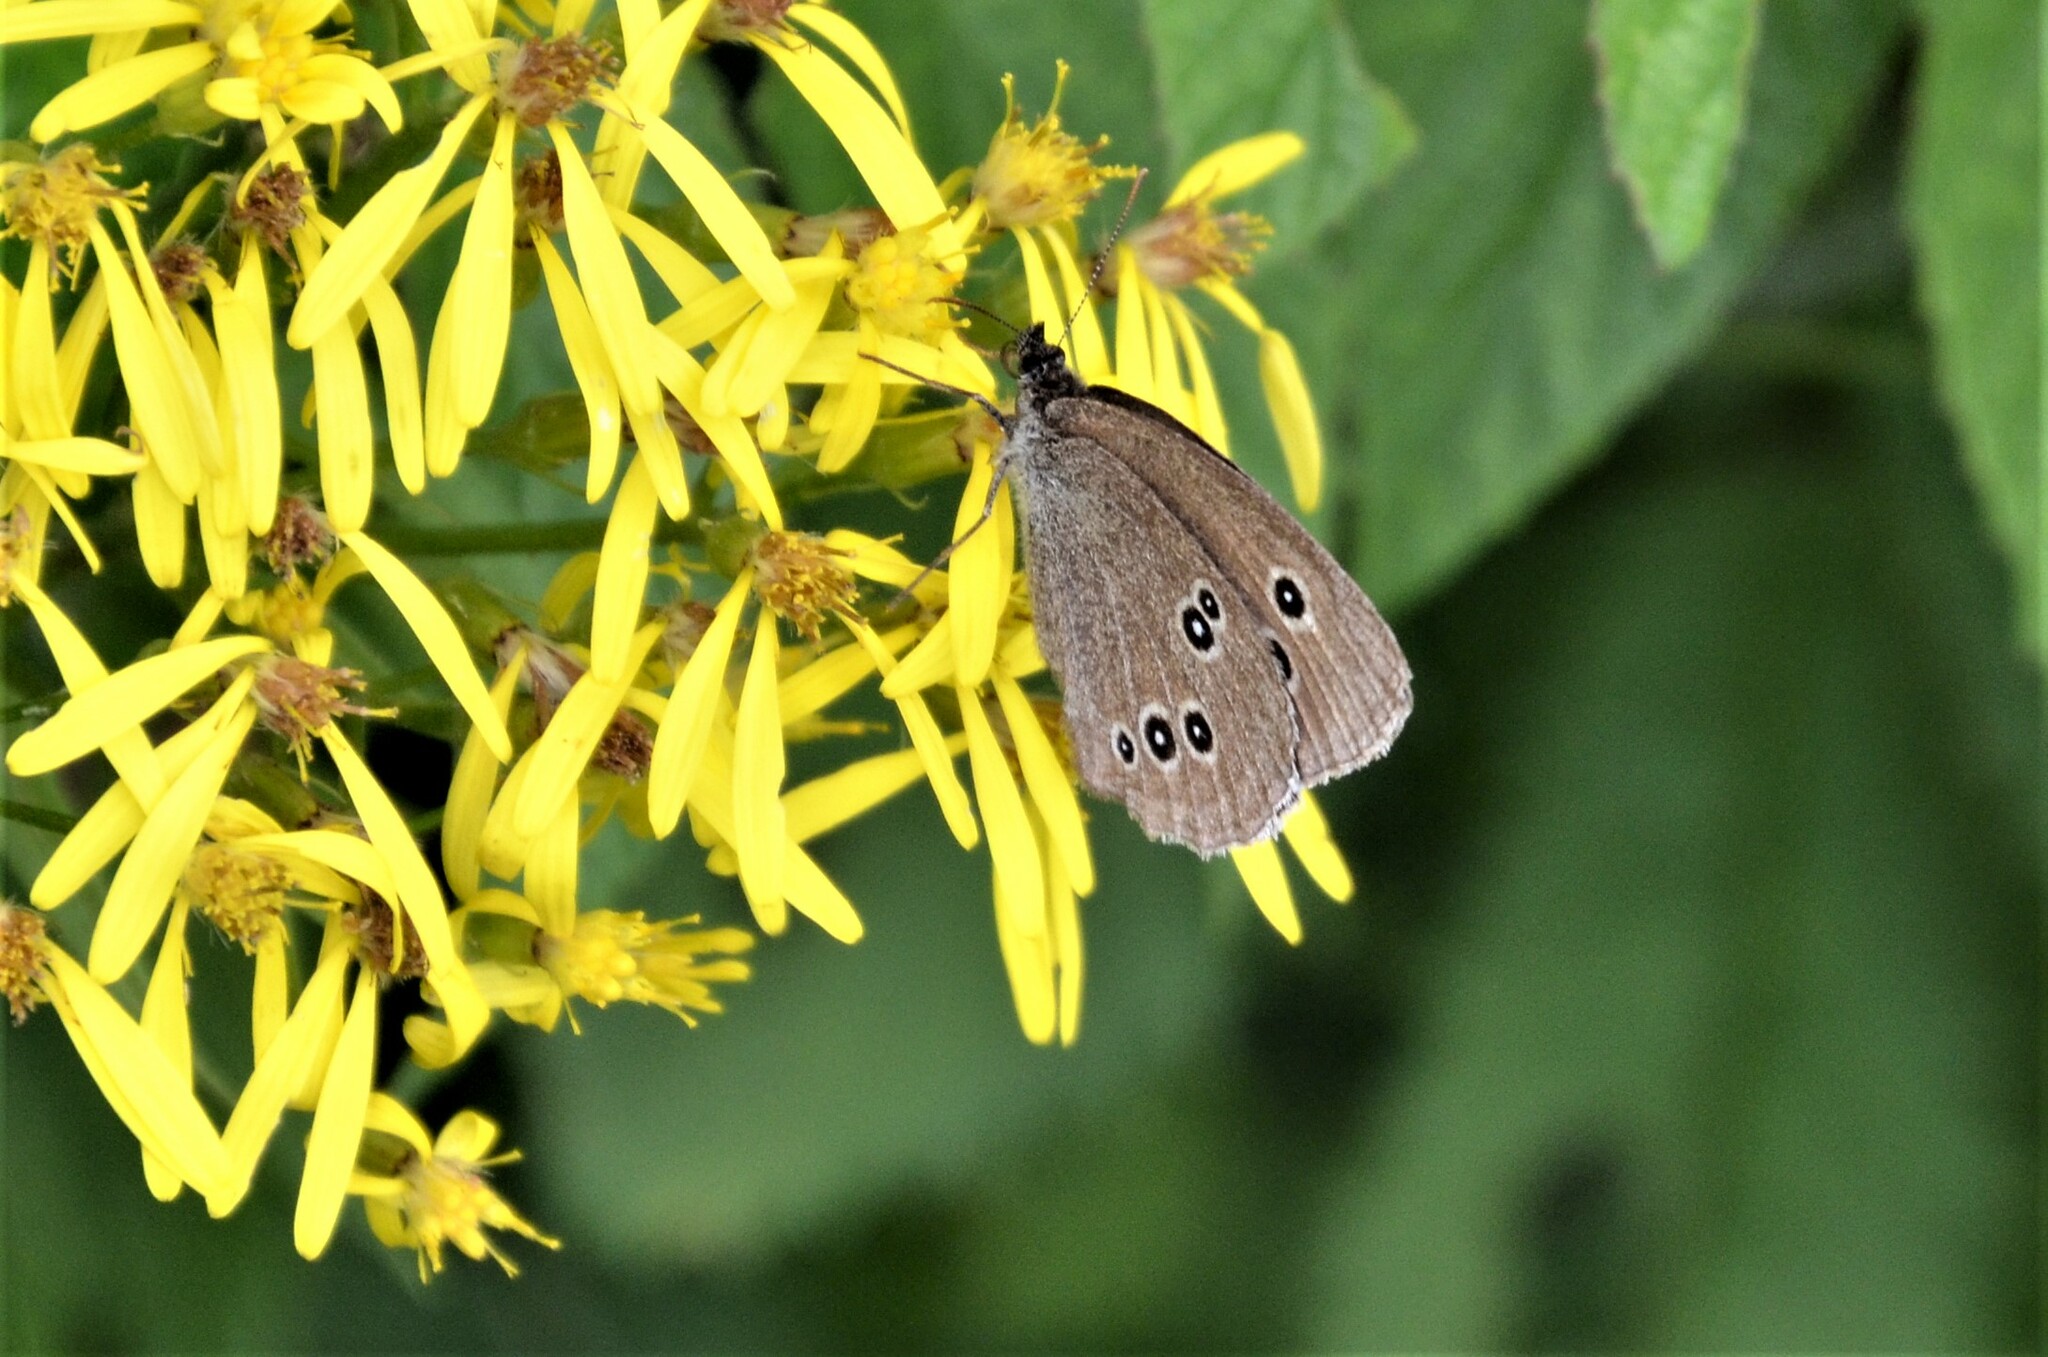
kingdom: Animalia
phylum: Arthropoda
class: Insecta
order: Lepidoptera
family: Nymphalidae
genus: Aphantopus
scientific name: Aphantopus hyperantus
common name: Ringlet
